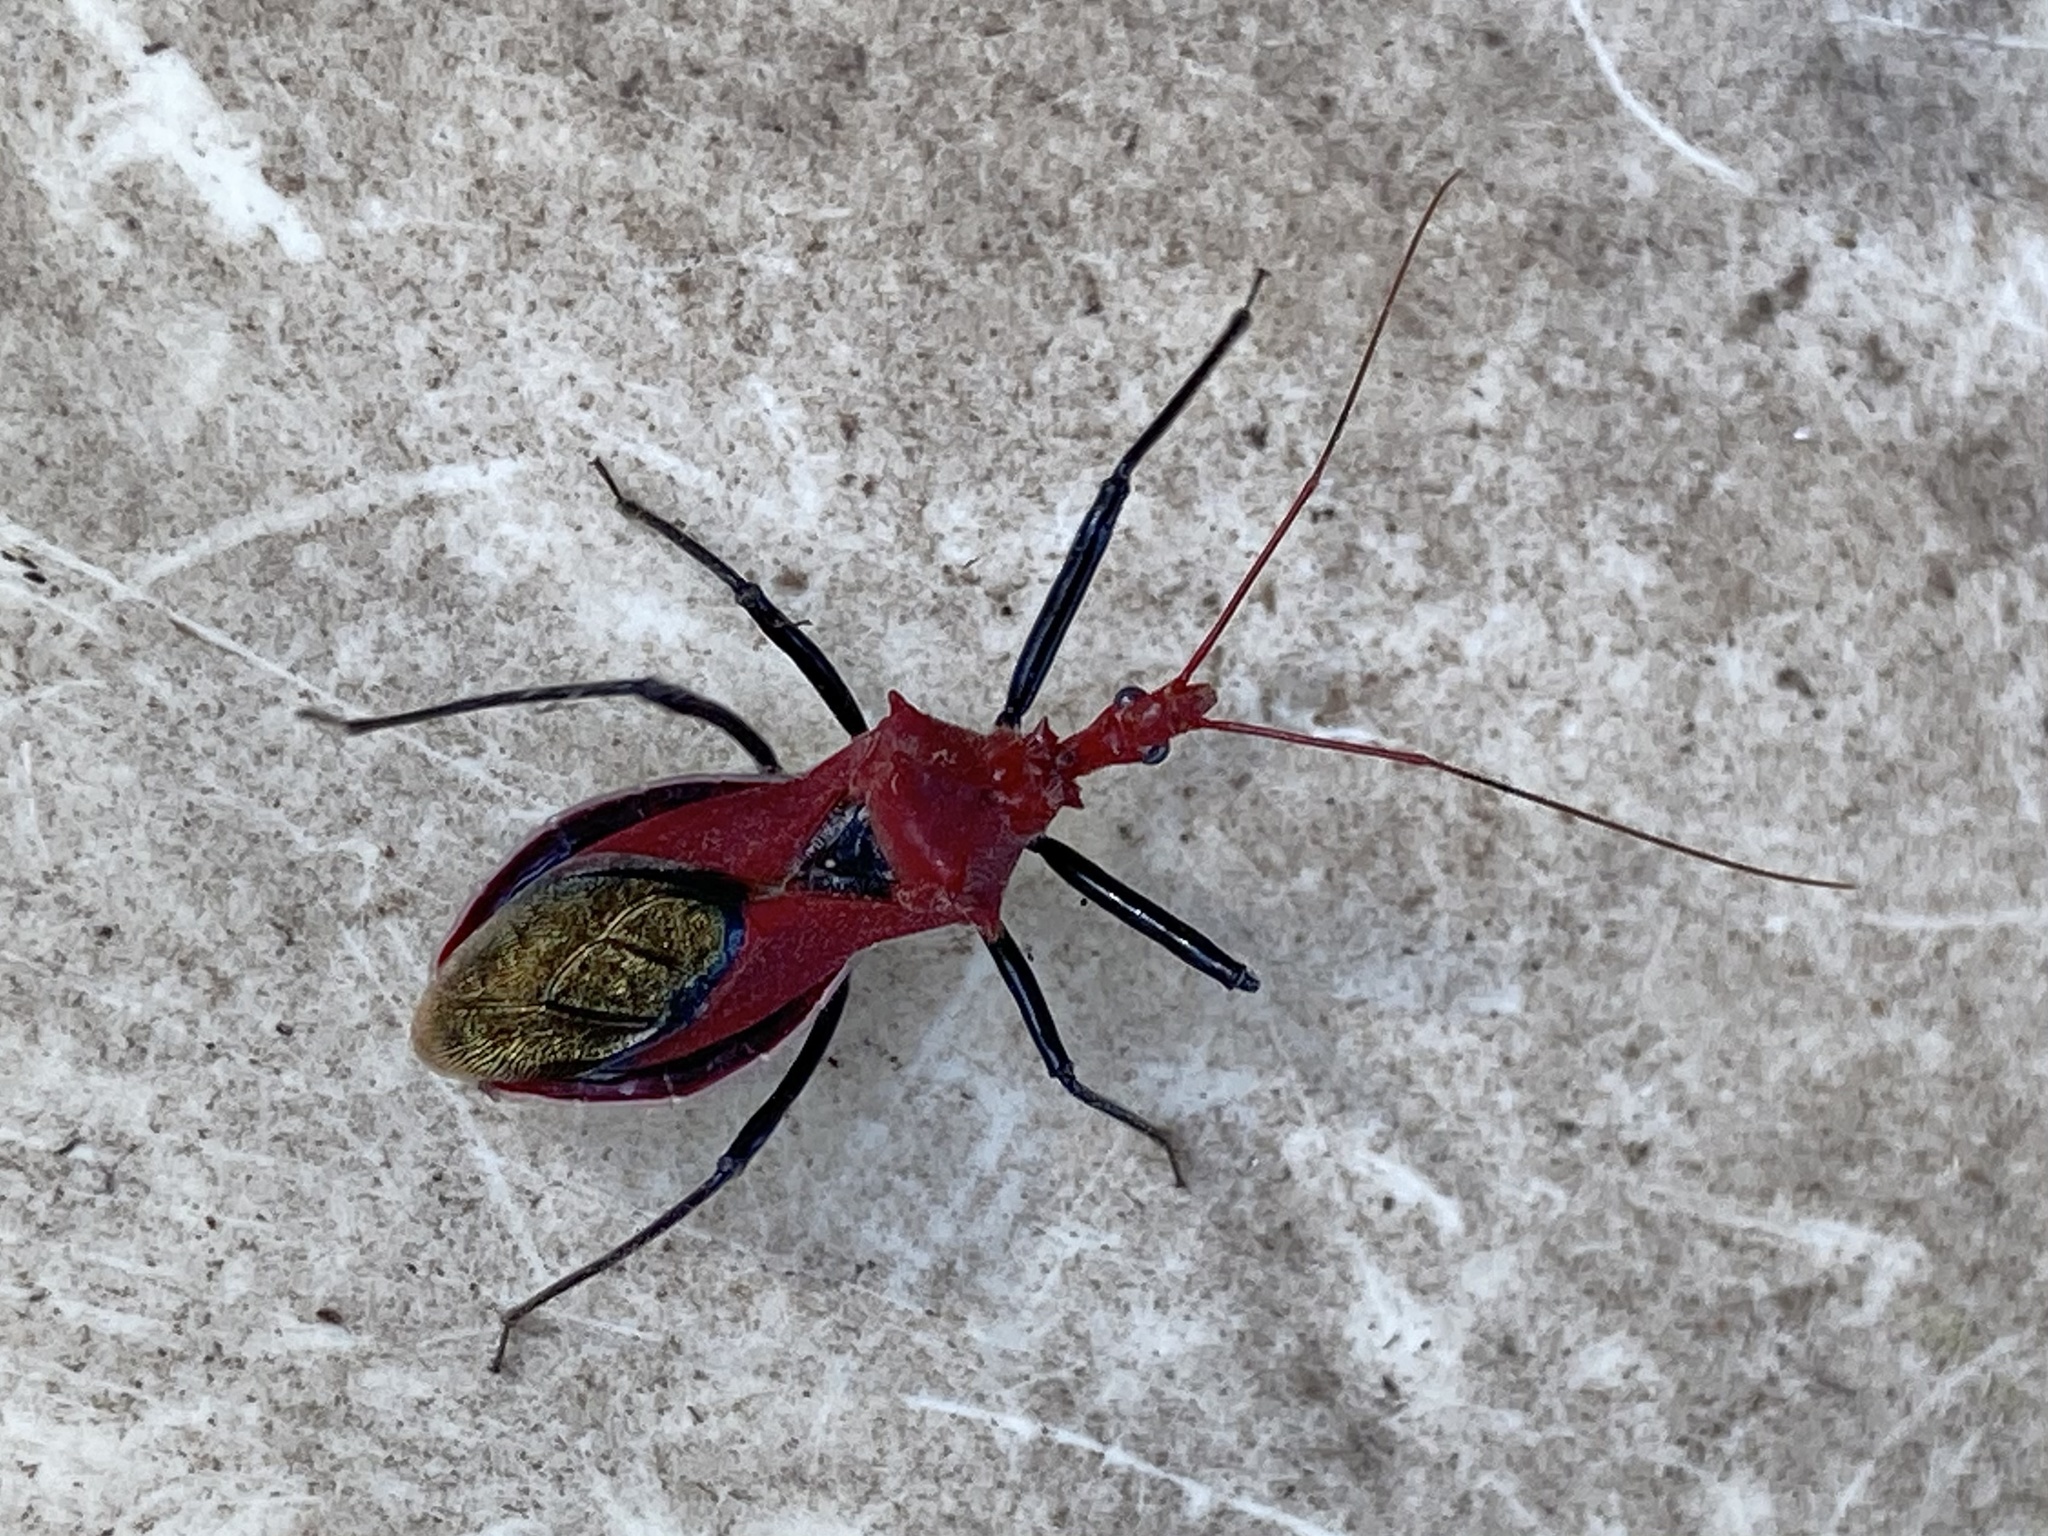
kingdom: Animalia
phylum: Arthropoda
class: Insecta
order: Hemiptera
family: Reduviidae
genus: Gminatus
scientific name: Gminatus wallengreni
